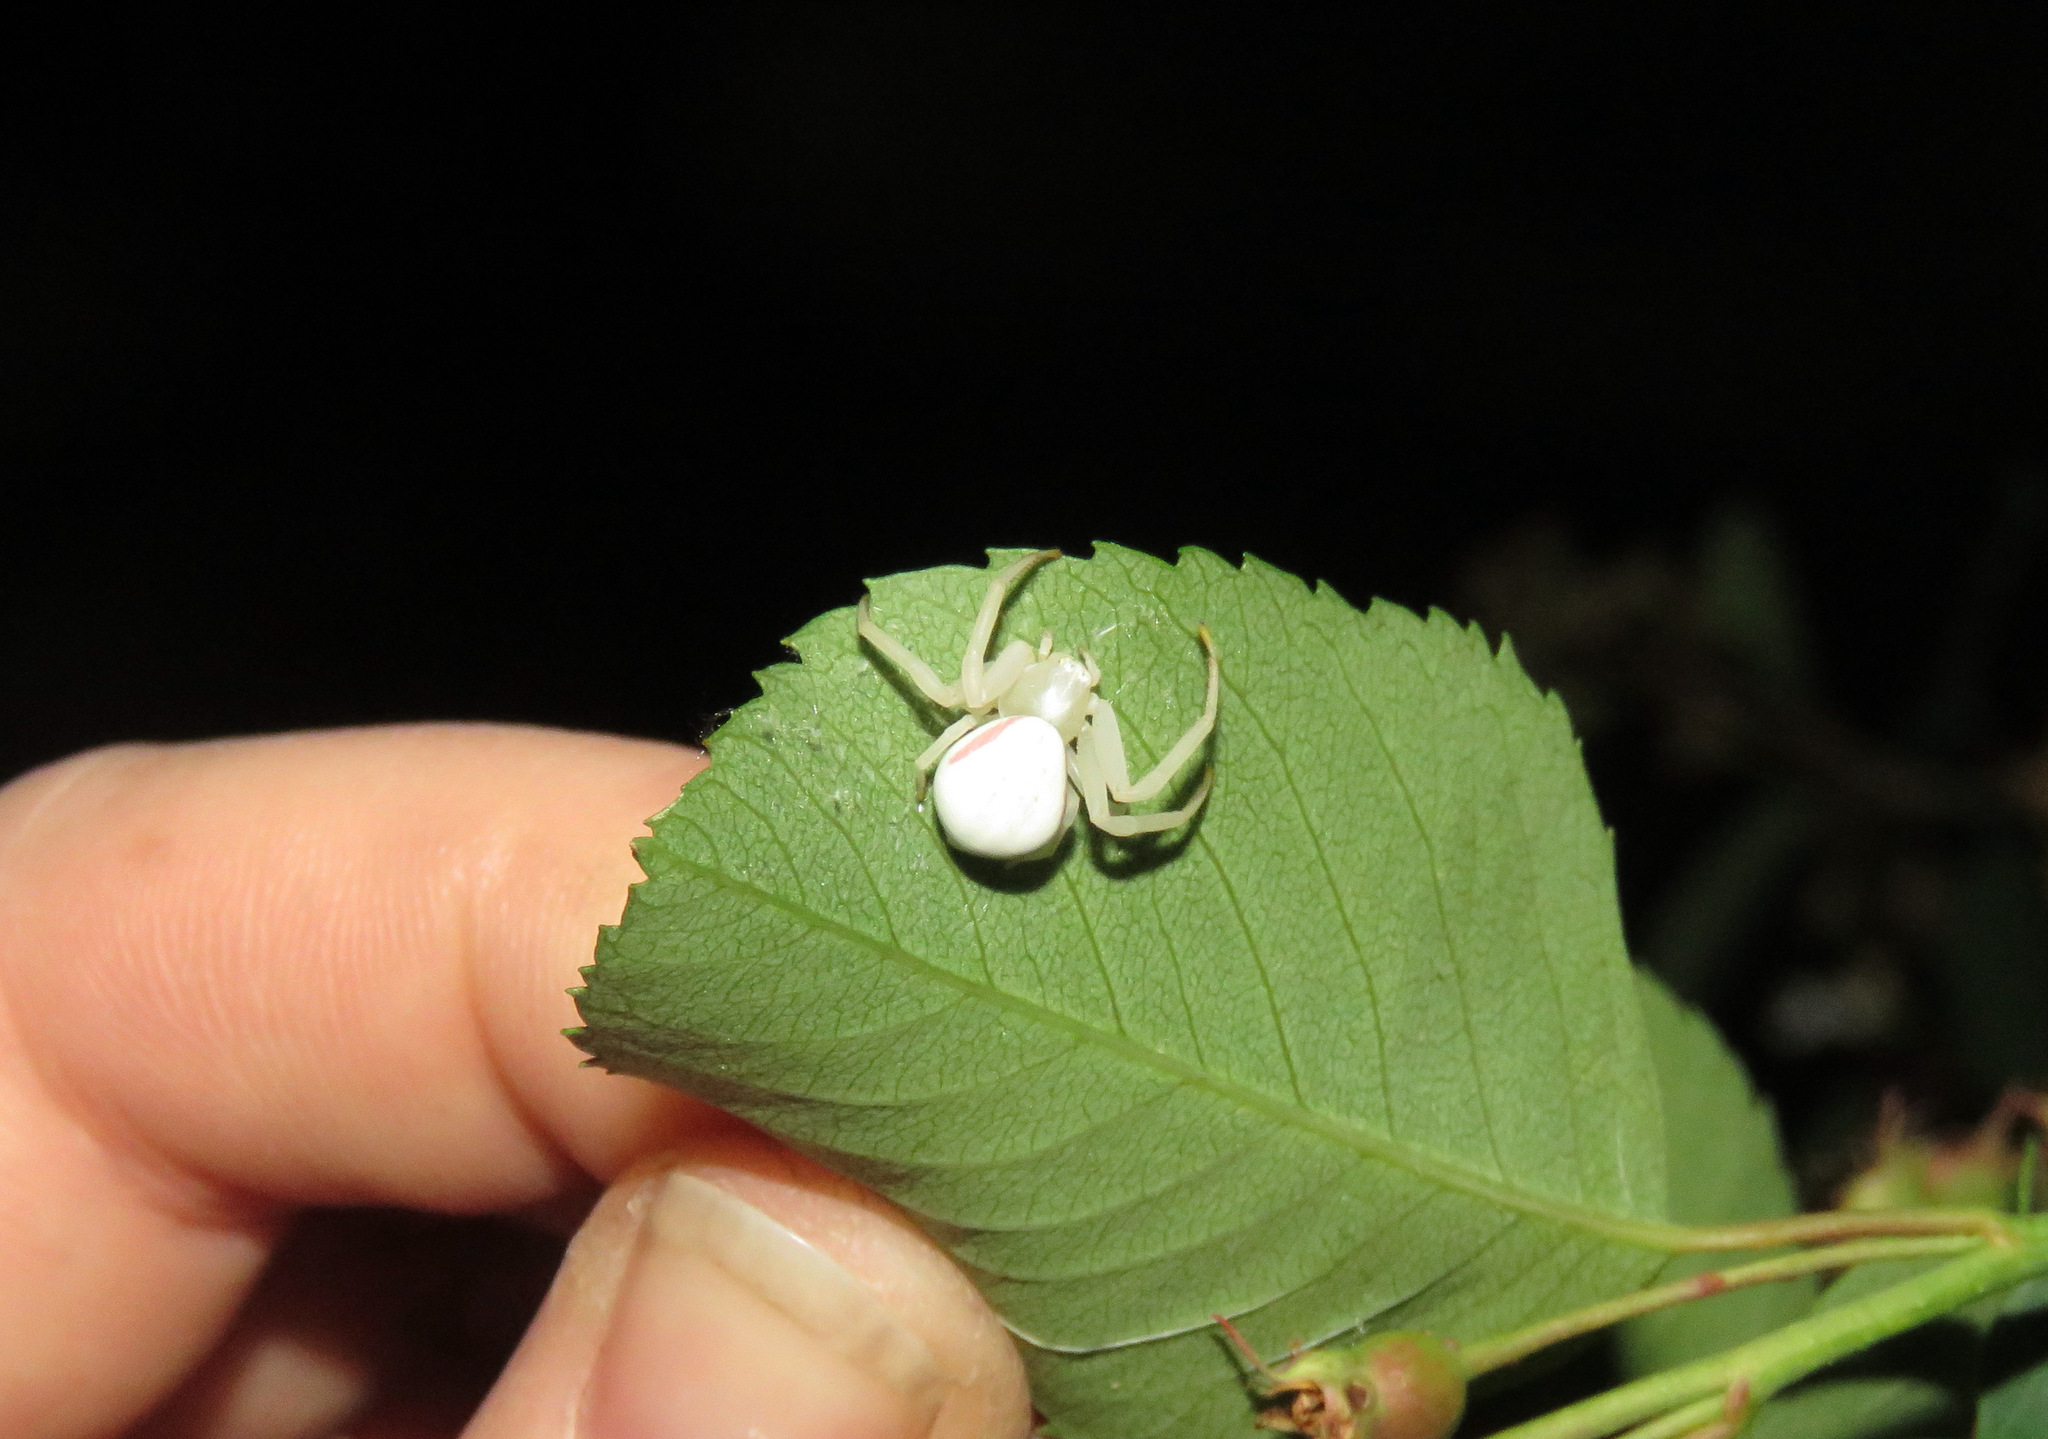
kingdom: Animalia
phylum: Arthropoda
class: Arachnida
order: Araneae
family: Thomisidae
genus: Misumena
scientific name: Misumena vatia
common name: Goldenrod crab spider
